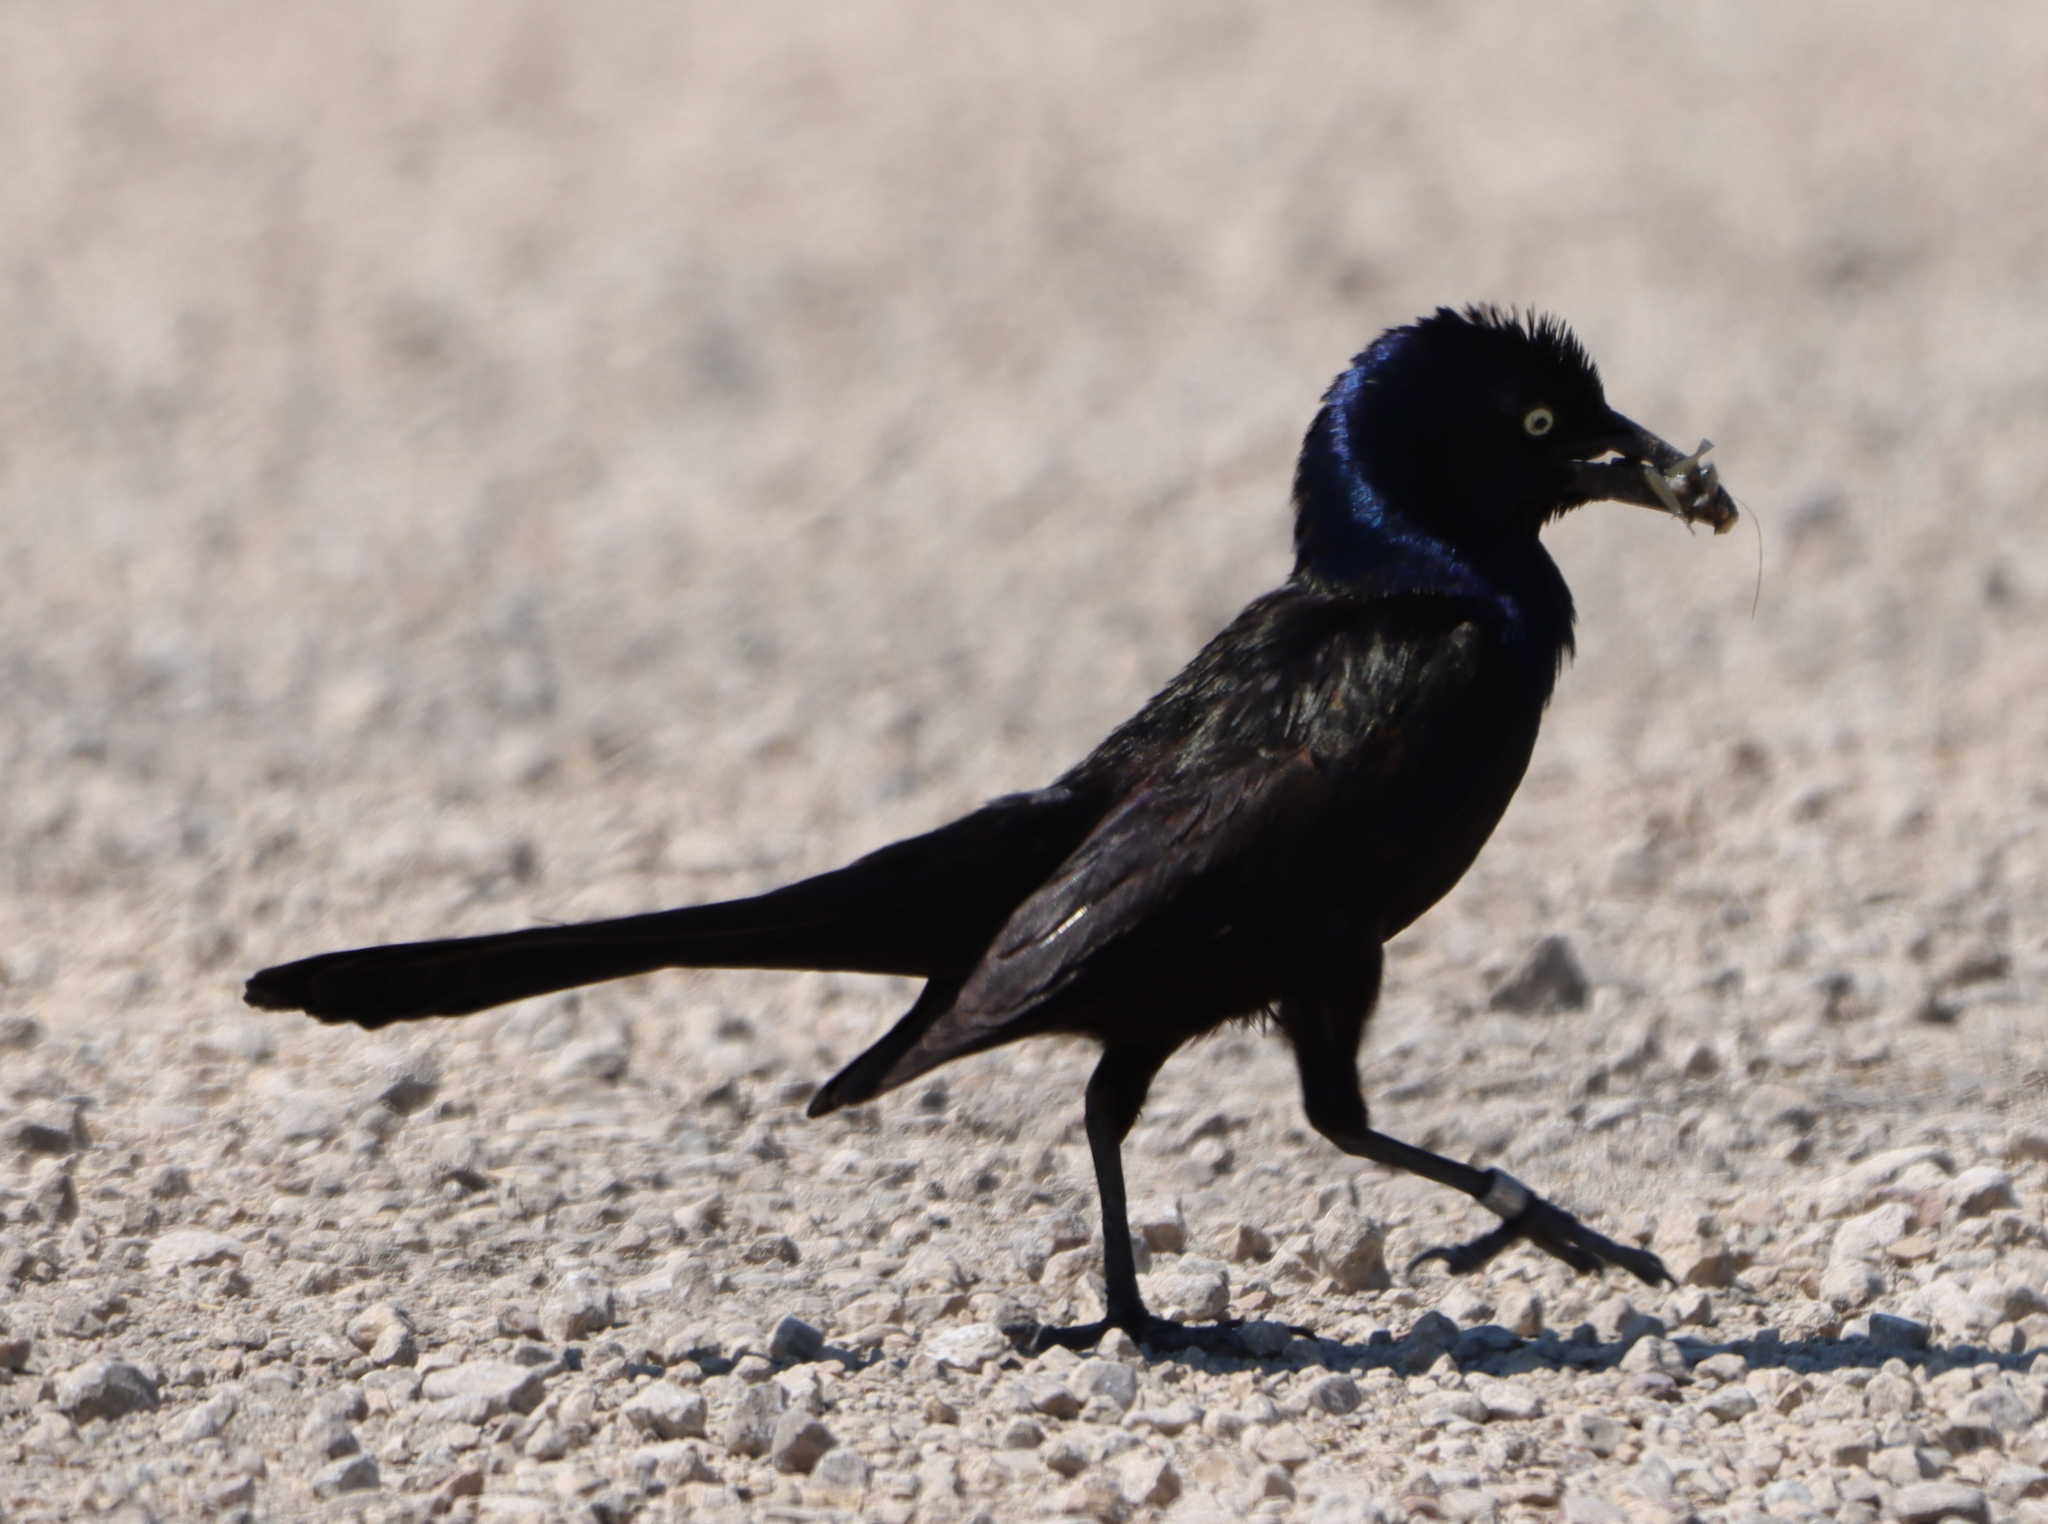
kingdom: Animalia
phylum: Chordata
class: Aves
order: Passeriformes
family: Icteridae
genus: Quiscalus
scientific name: Quiscalus quiscula
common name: Common grackle
